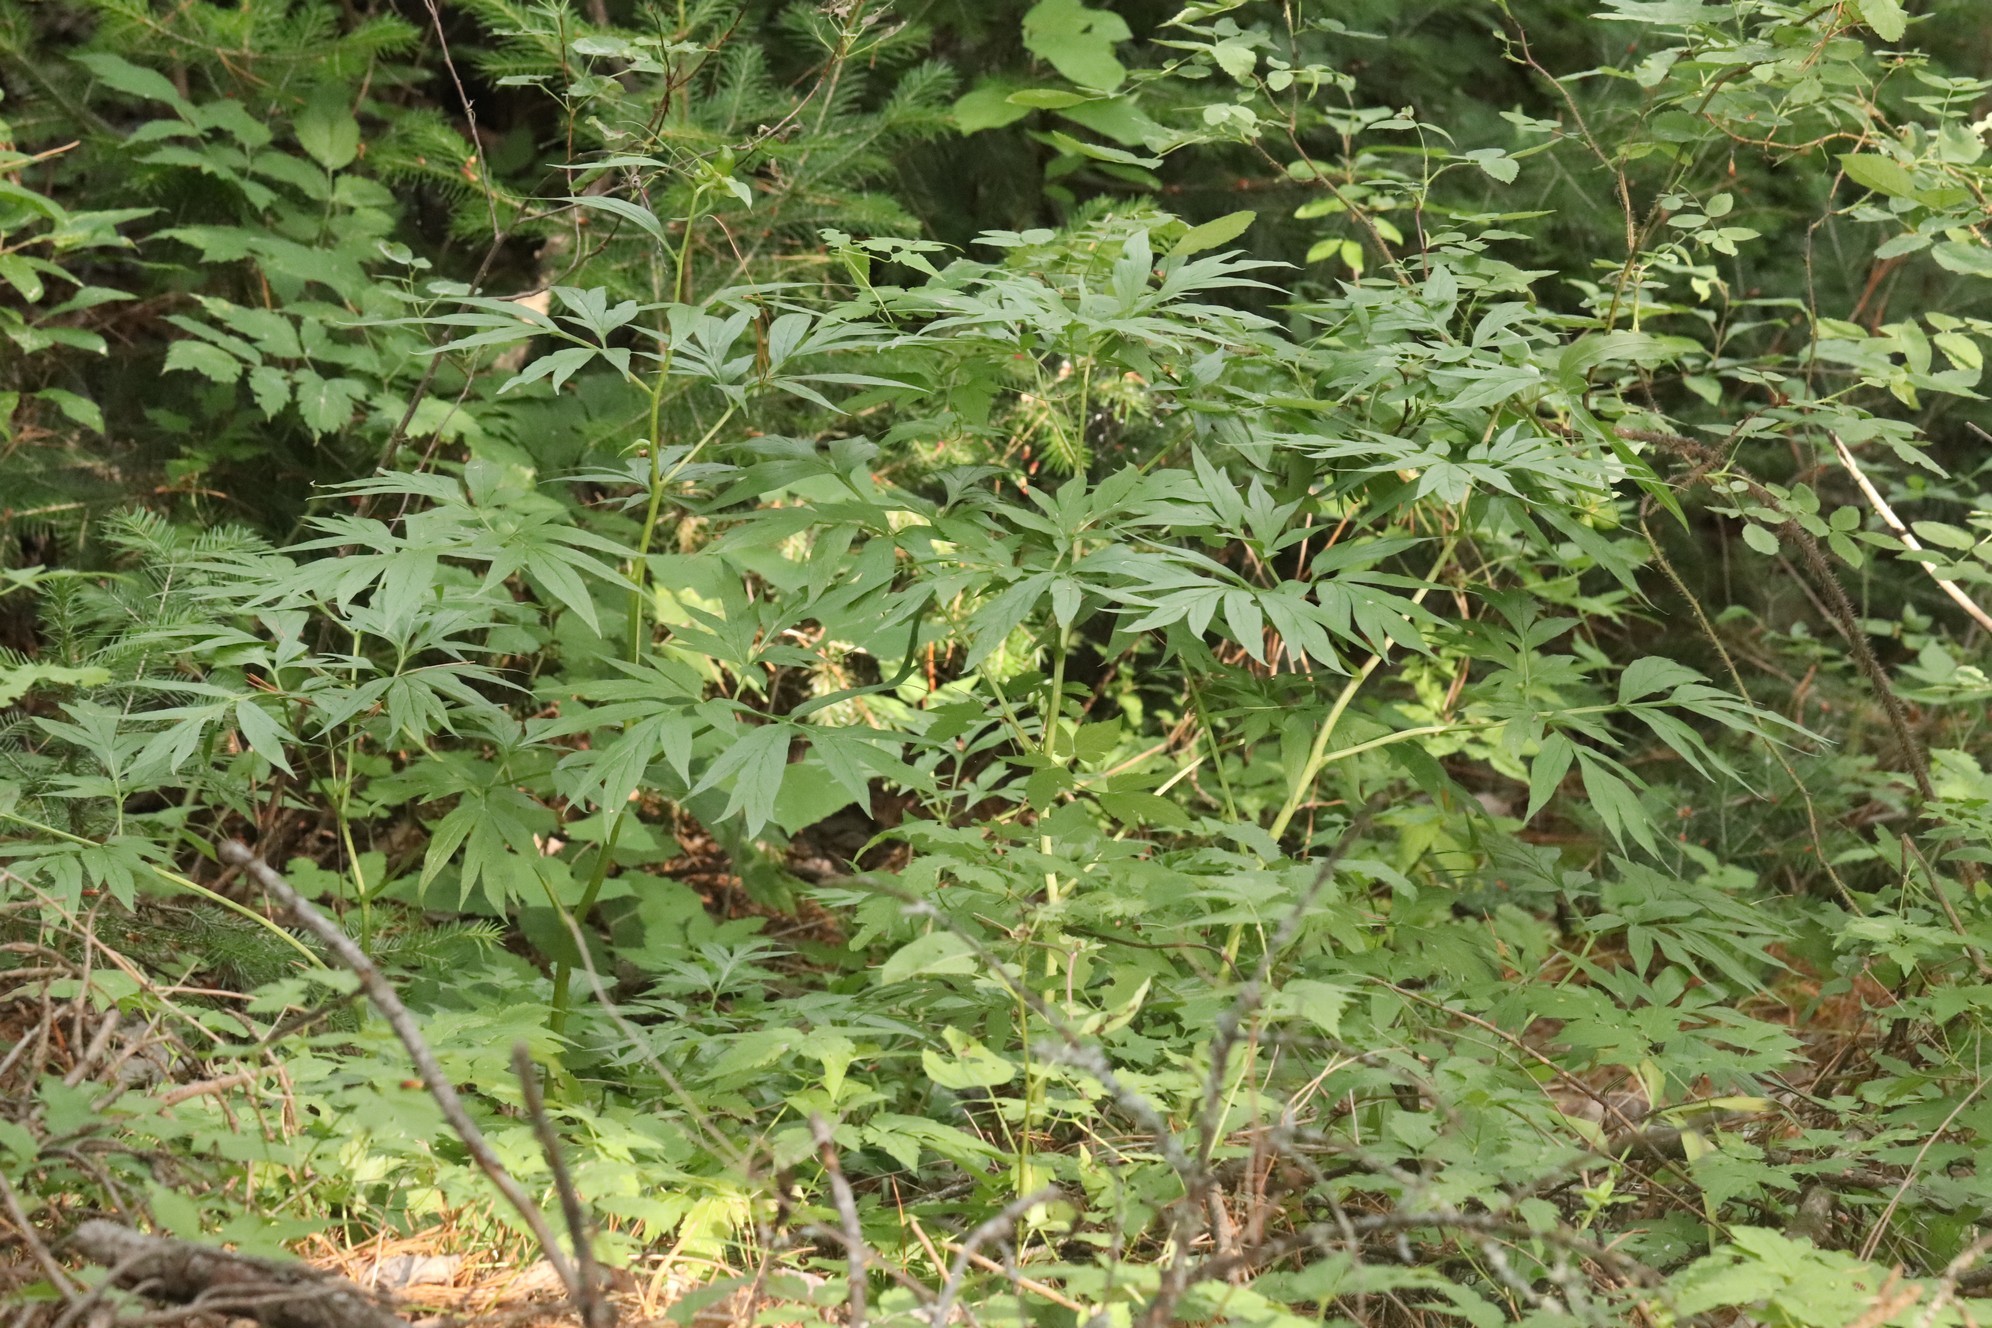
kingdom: Plantae
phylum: Tracheophyta
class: Magnoliopsida
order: Saxifragales
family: Paeoniaceae
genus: Paeonia
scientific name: Paeonia anomala
